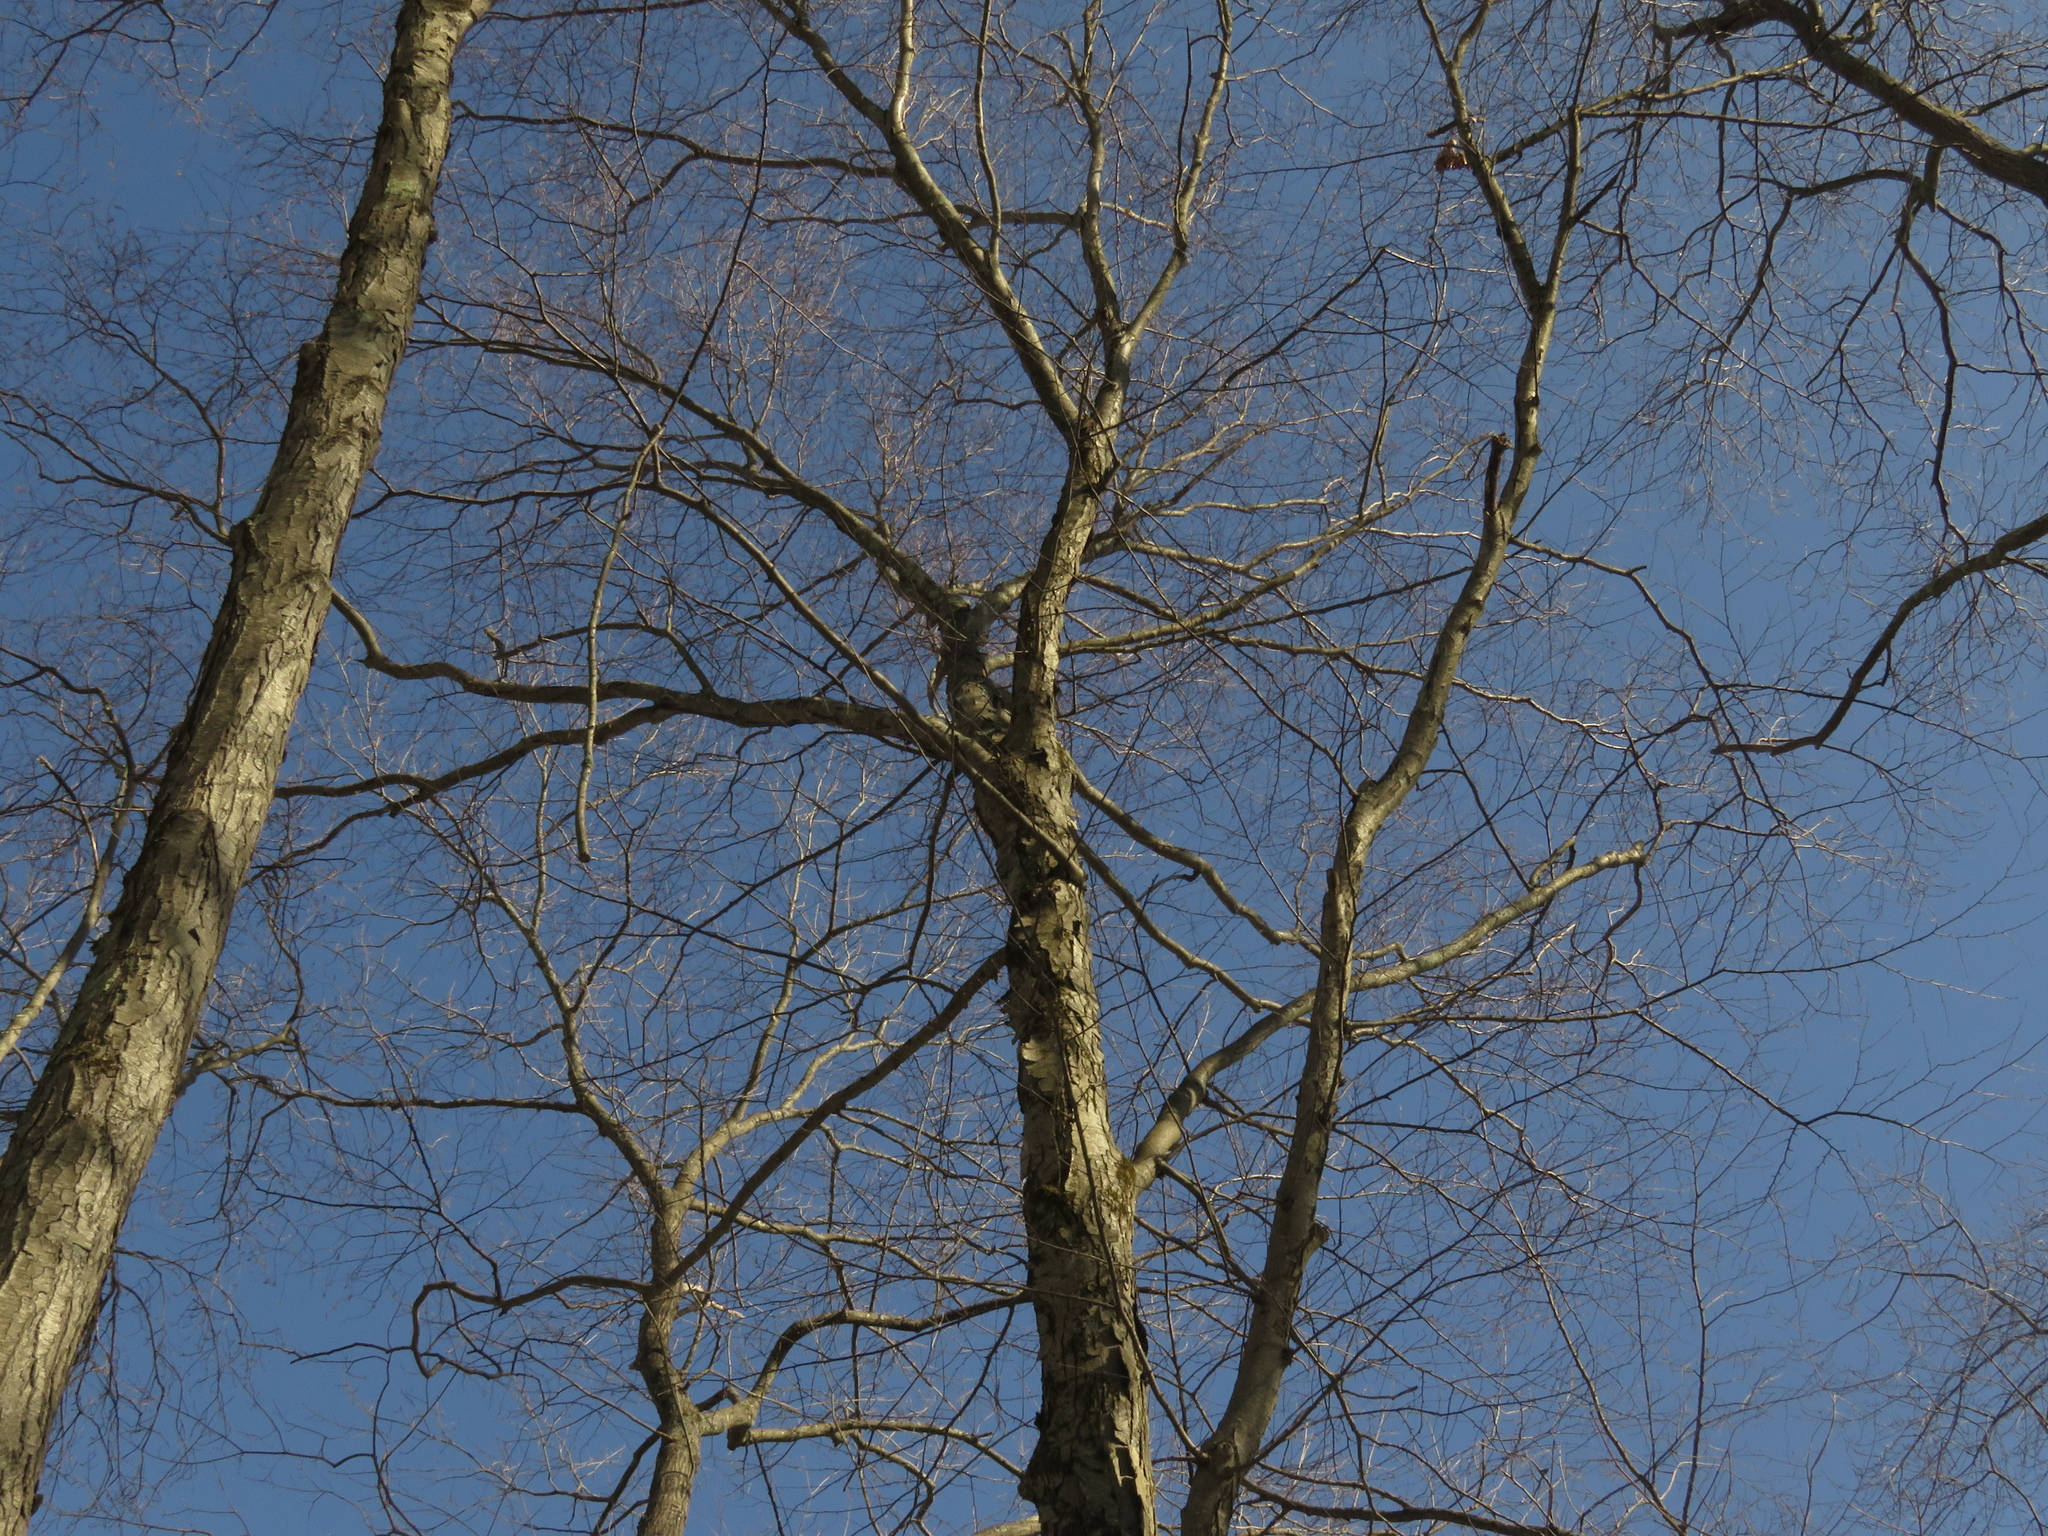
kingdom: Plantae
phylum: Tracheophyta
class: Magnoliopsida
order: Fagales
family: Betulaceae
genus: Betula
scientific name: Betula lenta
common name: Black birch
